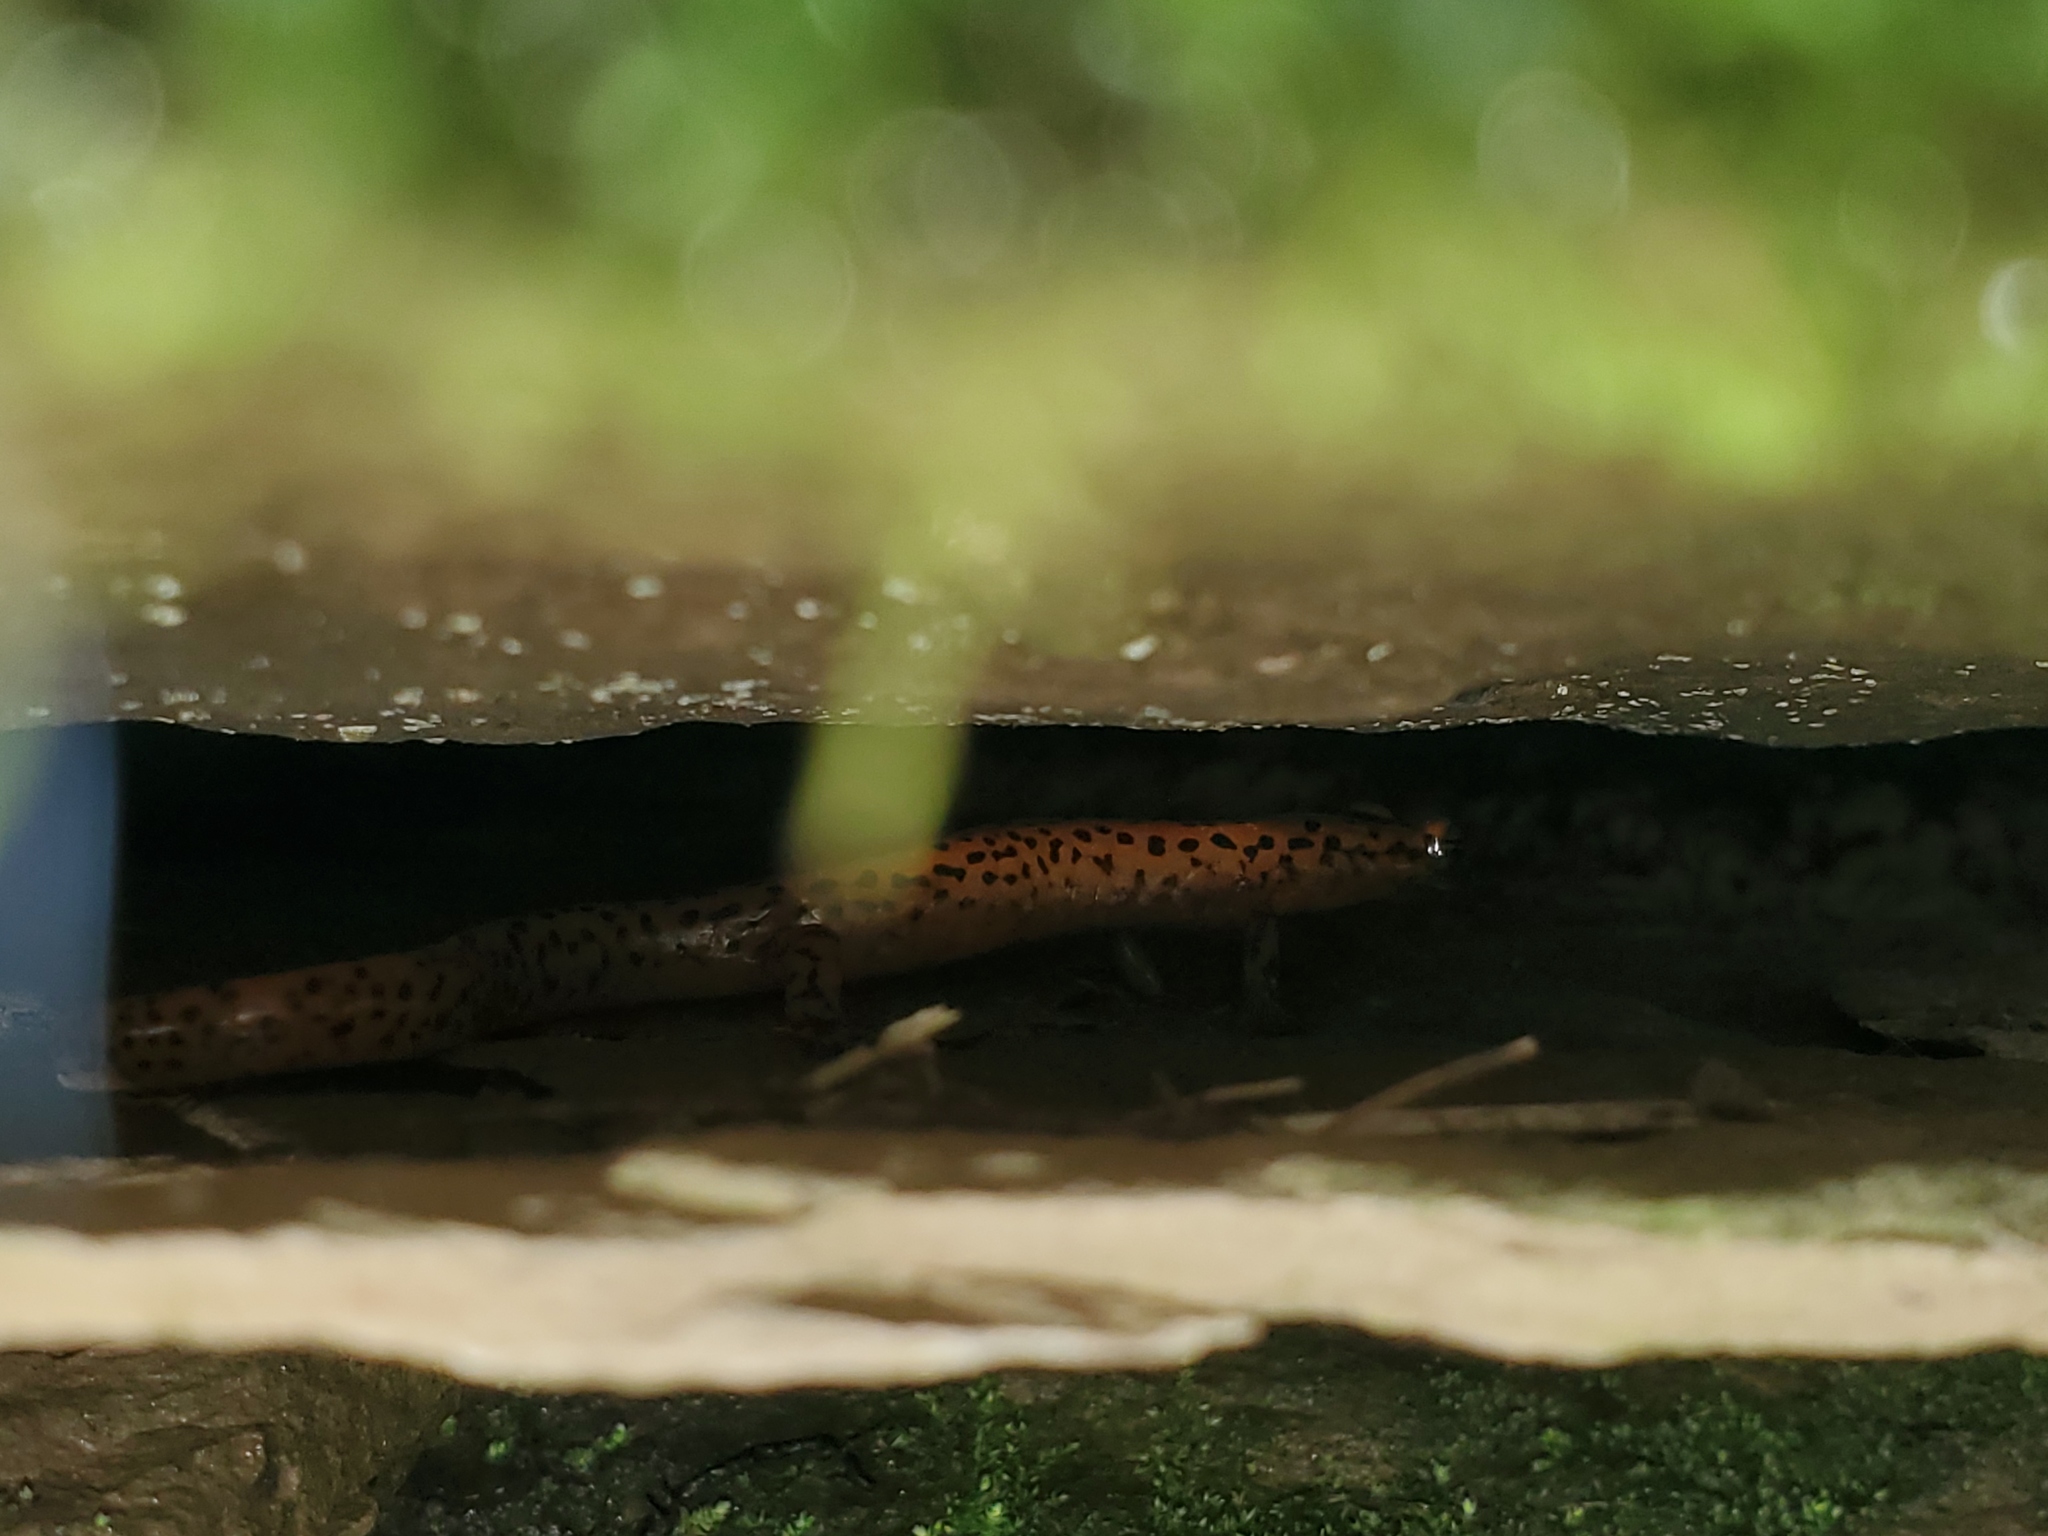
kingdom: Animalia
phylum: Chordata
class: Amphibia
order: Caudata
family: Plethodontidae
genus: Eurycea
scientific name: Eurycea lucifuga
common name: Cave salamander
